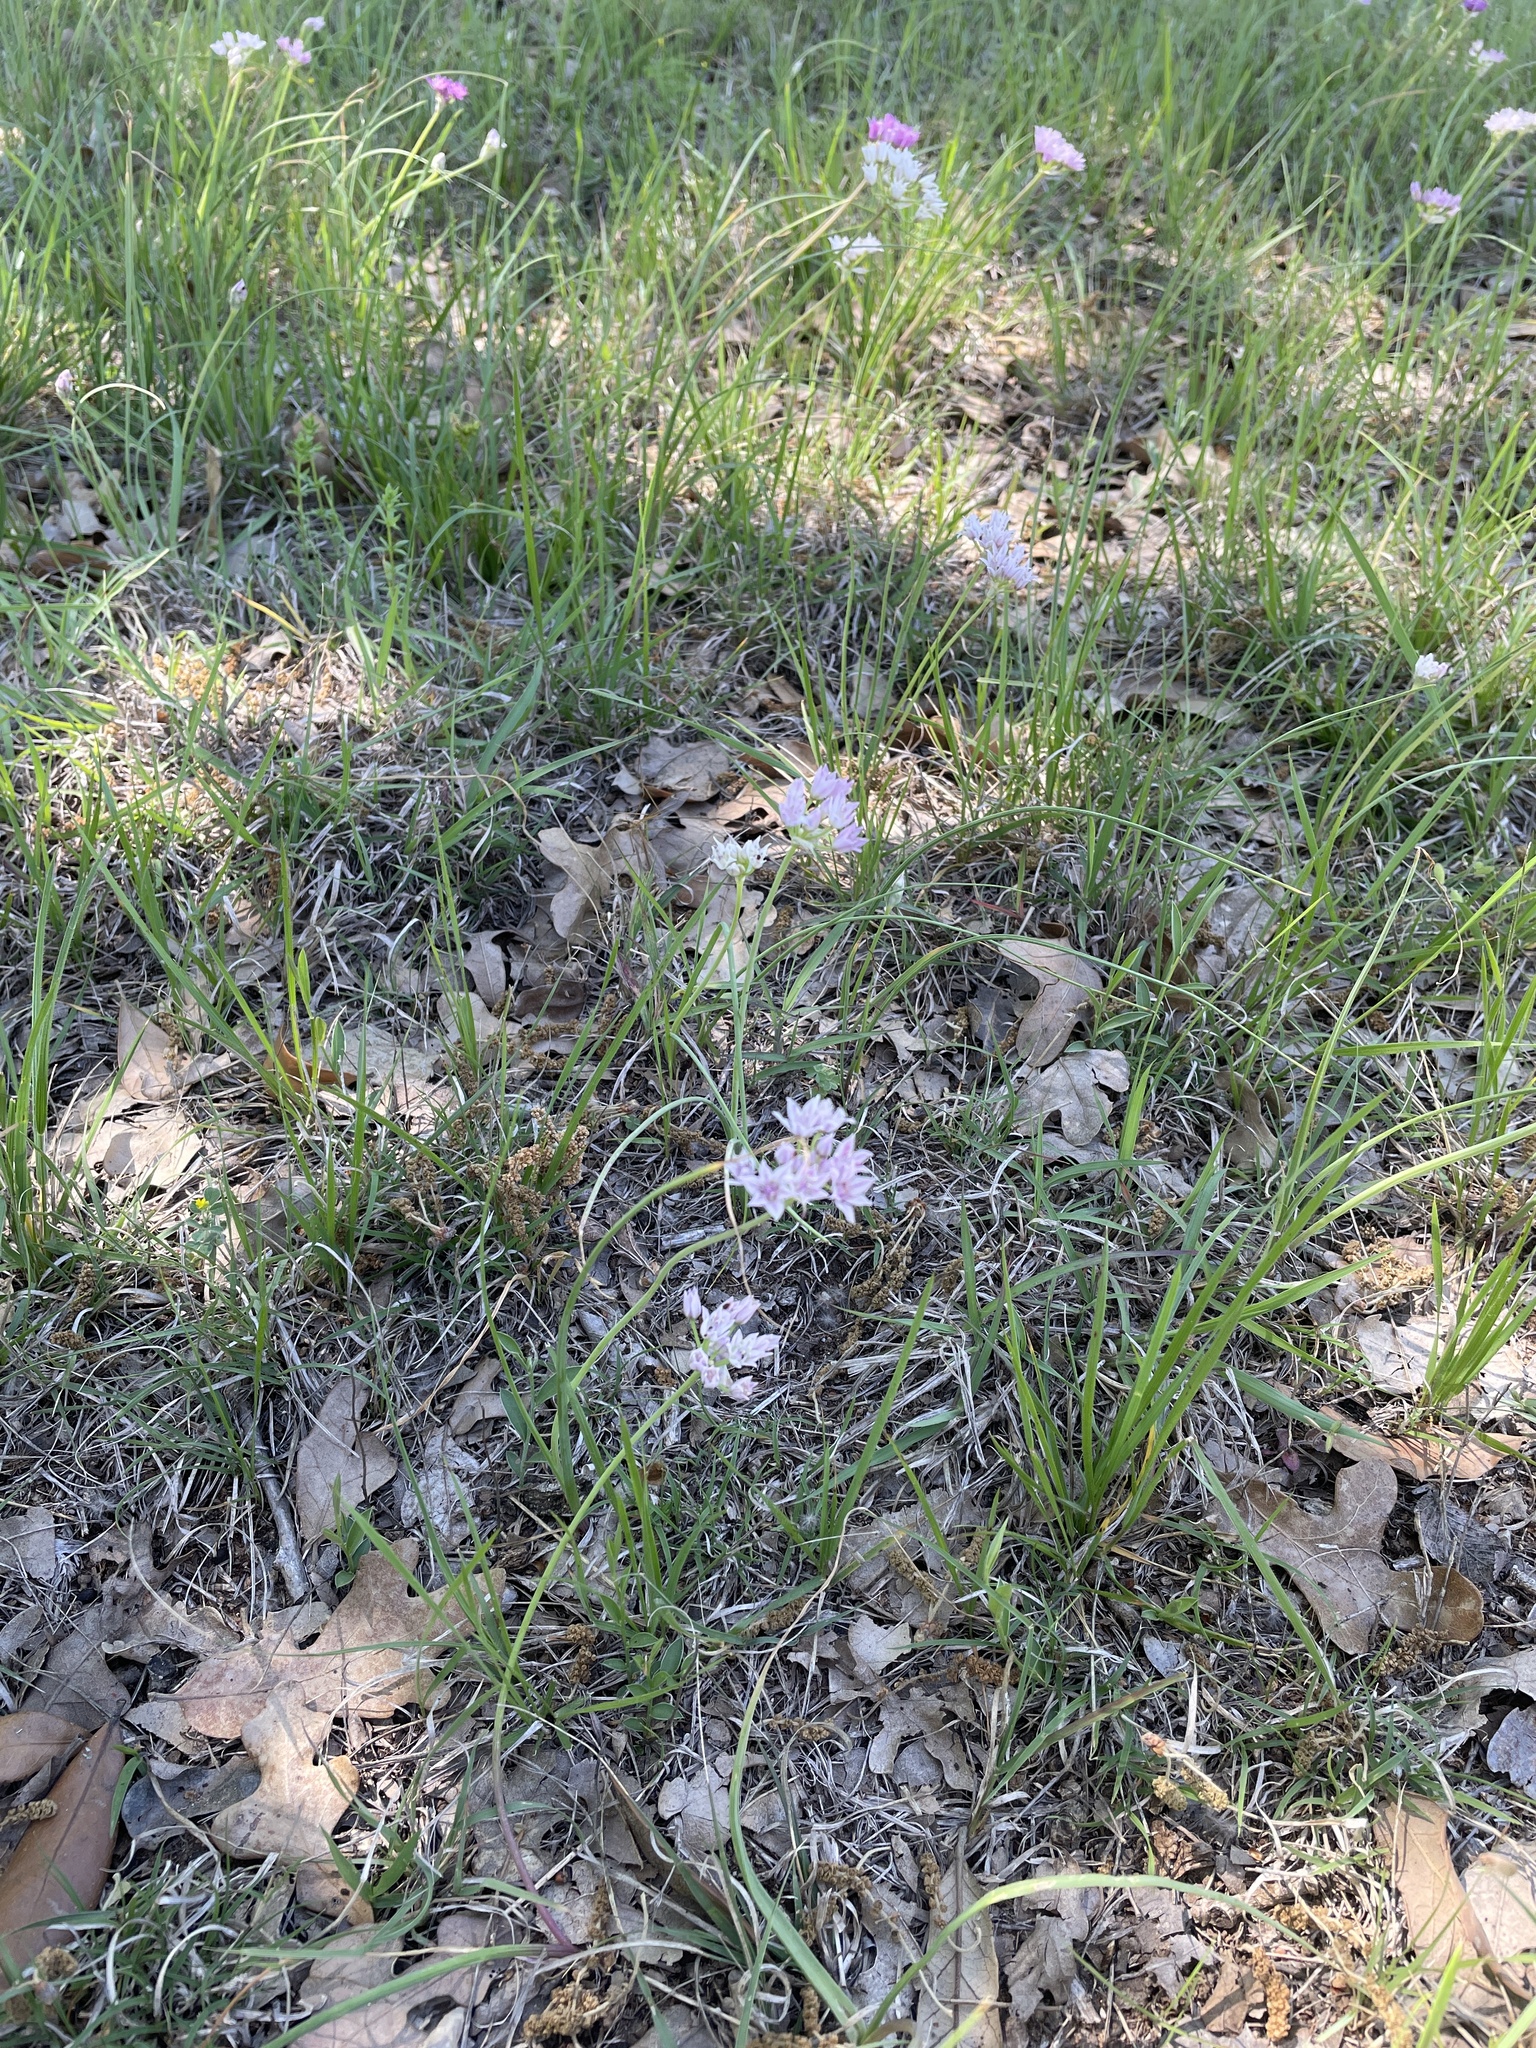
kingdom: Plantae
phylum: Tracheophyta
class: Liliopsida
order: Asparagales
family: Amaryllidaceae
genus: Allium
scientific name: Allium drummondii
